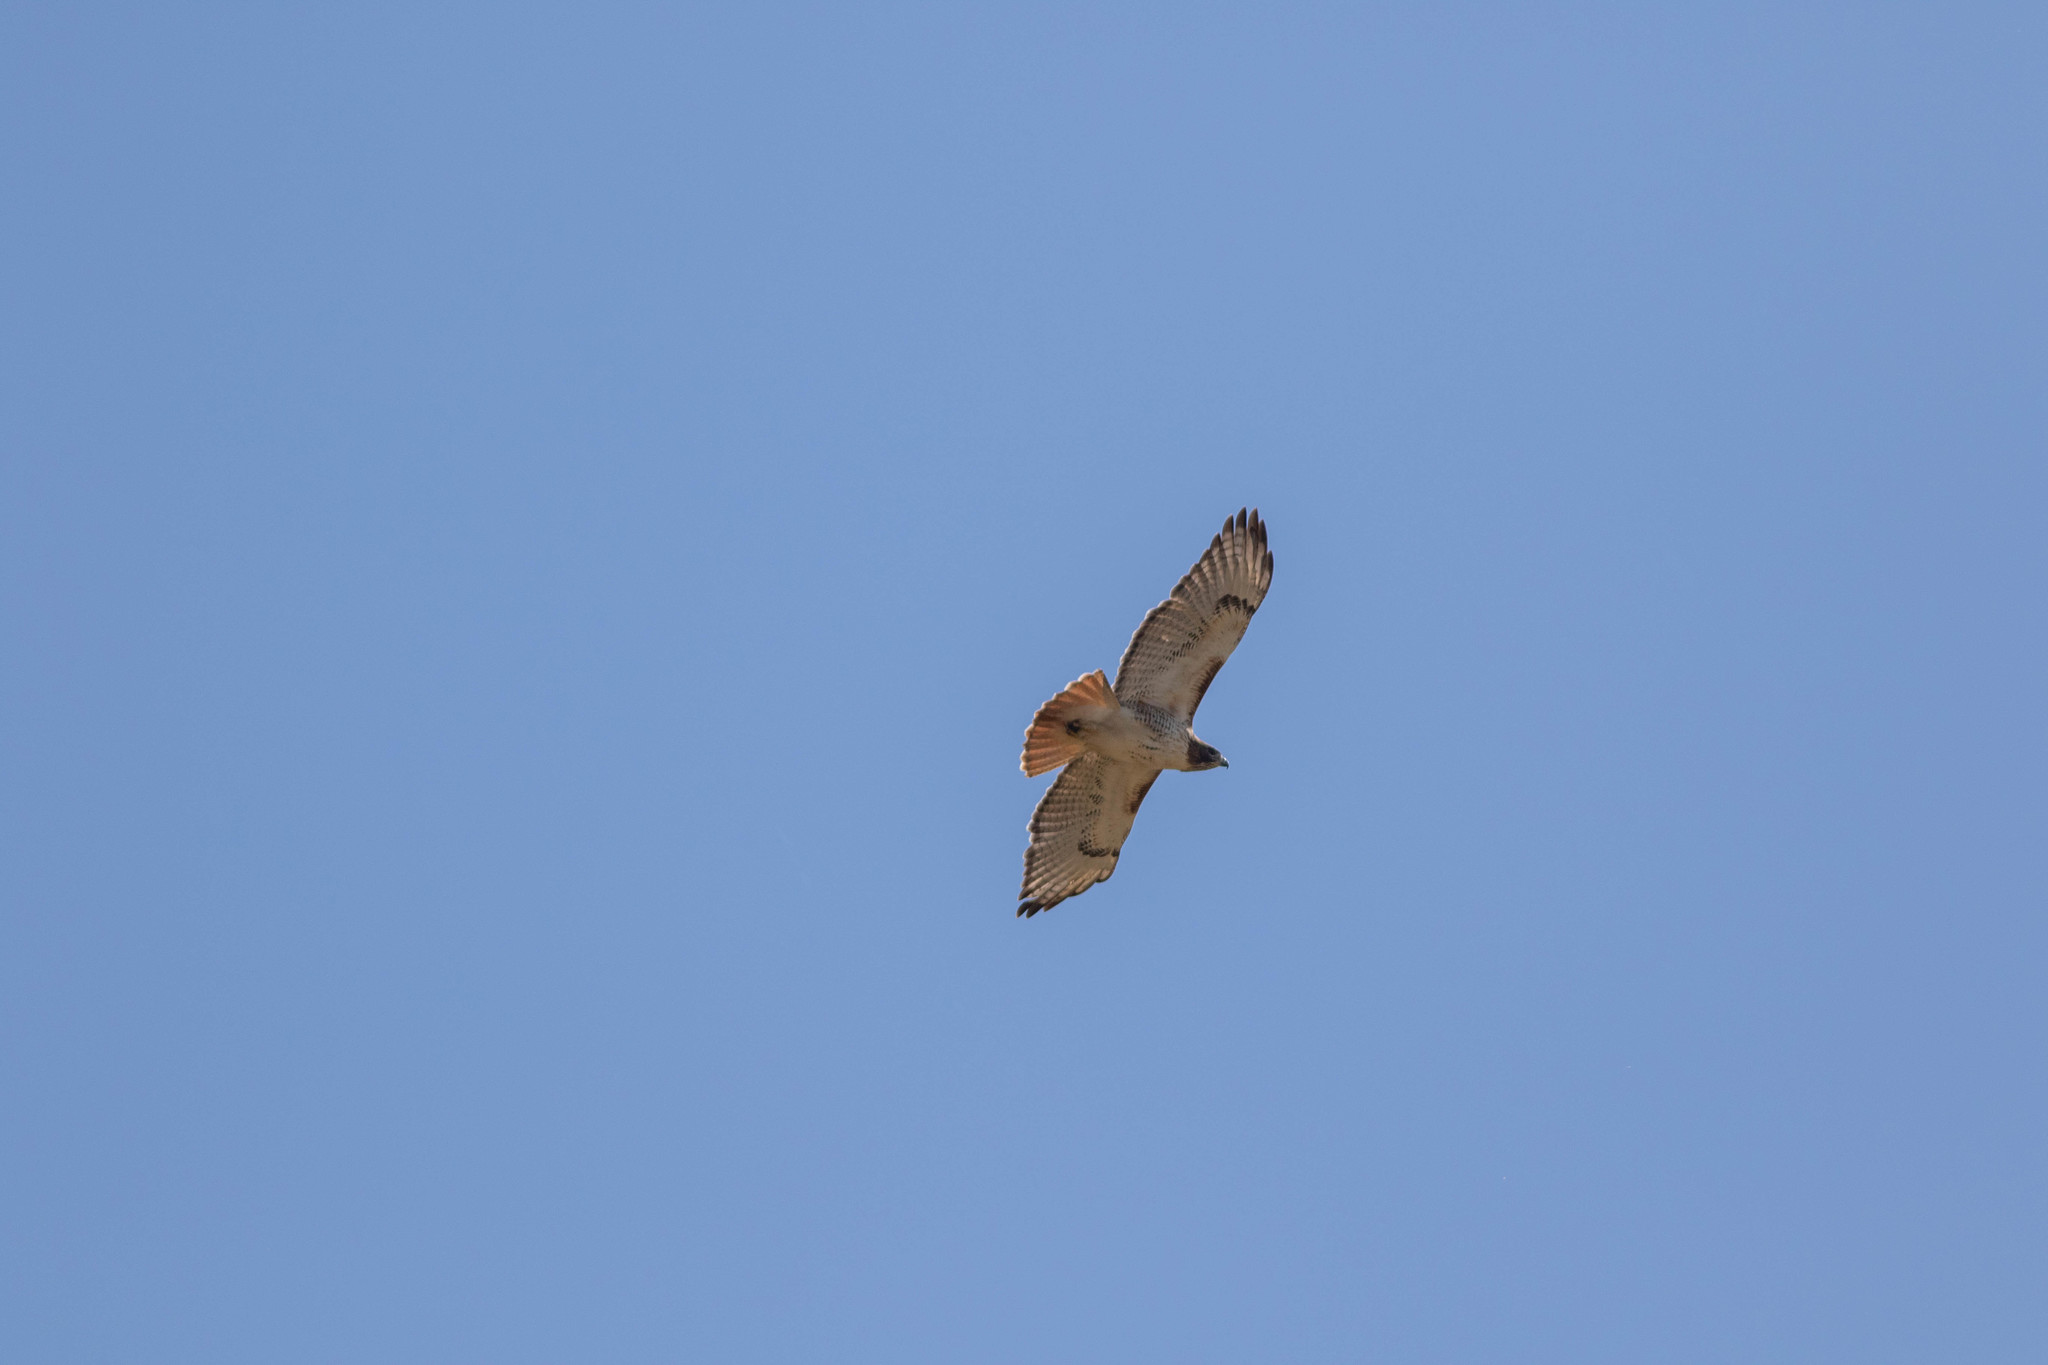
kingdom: Animalia
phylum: Chordata
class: Aves
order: Accipitriformes
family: Accipitridae
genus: Buteo
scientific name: Buteo jamaicensis
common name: Red-tailed hawk
